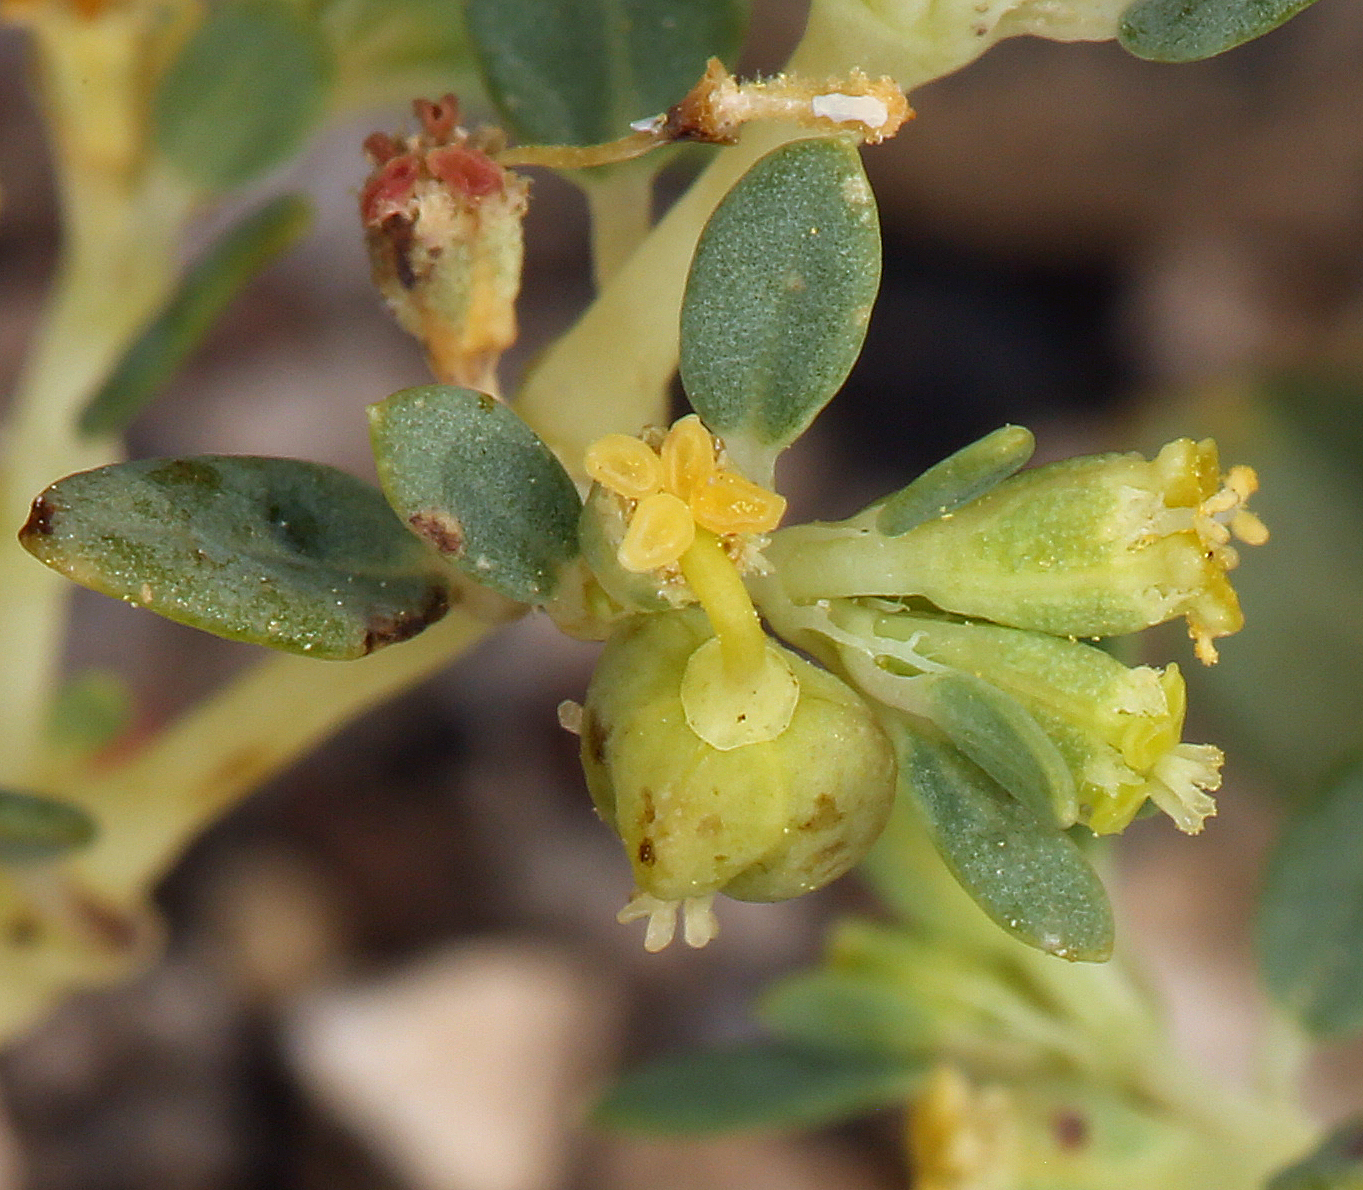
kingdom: Plantae
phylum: Tracheophyta
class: Magnoliopsida
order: Malpighiales
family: Euphorbiaceae
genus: Euphorbia
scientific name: Euphorbia ocellata
